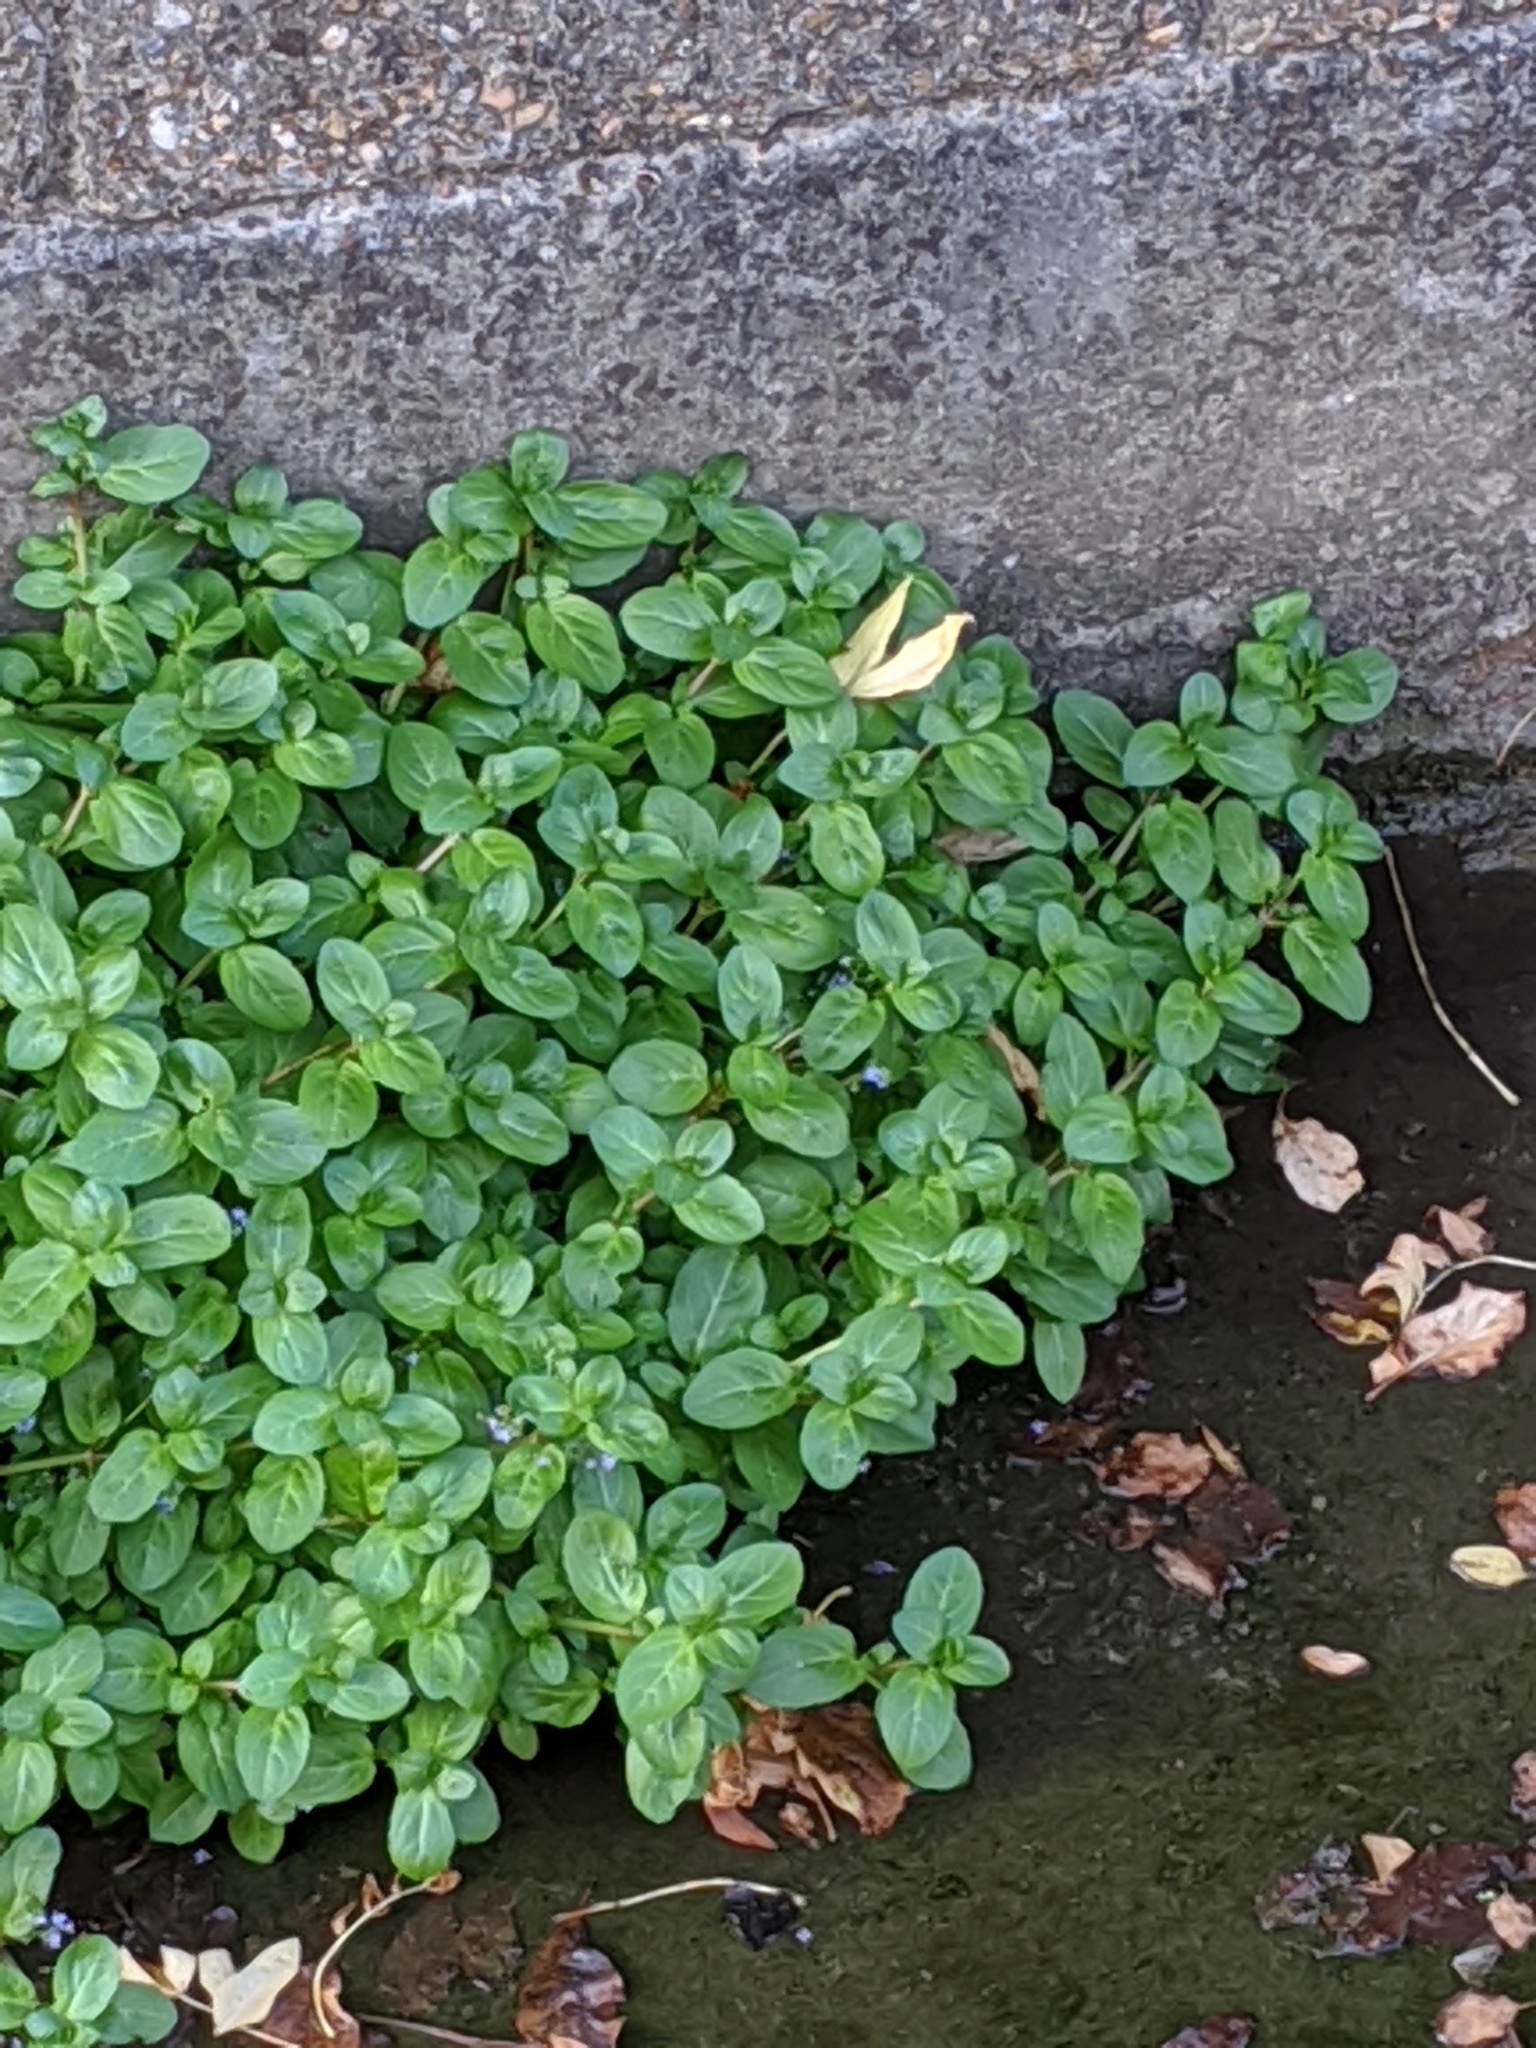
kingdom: Plantae
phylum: Tracheophyta
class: Magnoliopsida
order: Lamiales
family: Plantaginaceae
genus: Veronica
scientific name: Veronica beccabunga
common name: Brooklime
